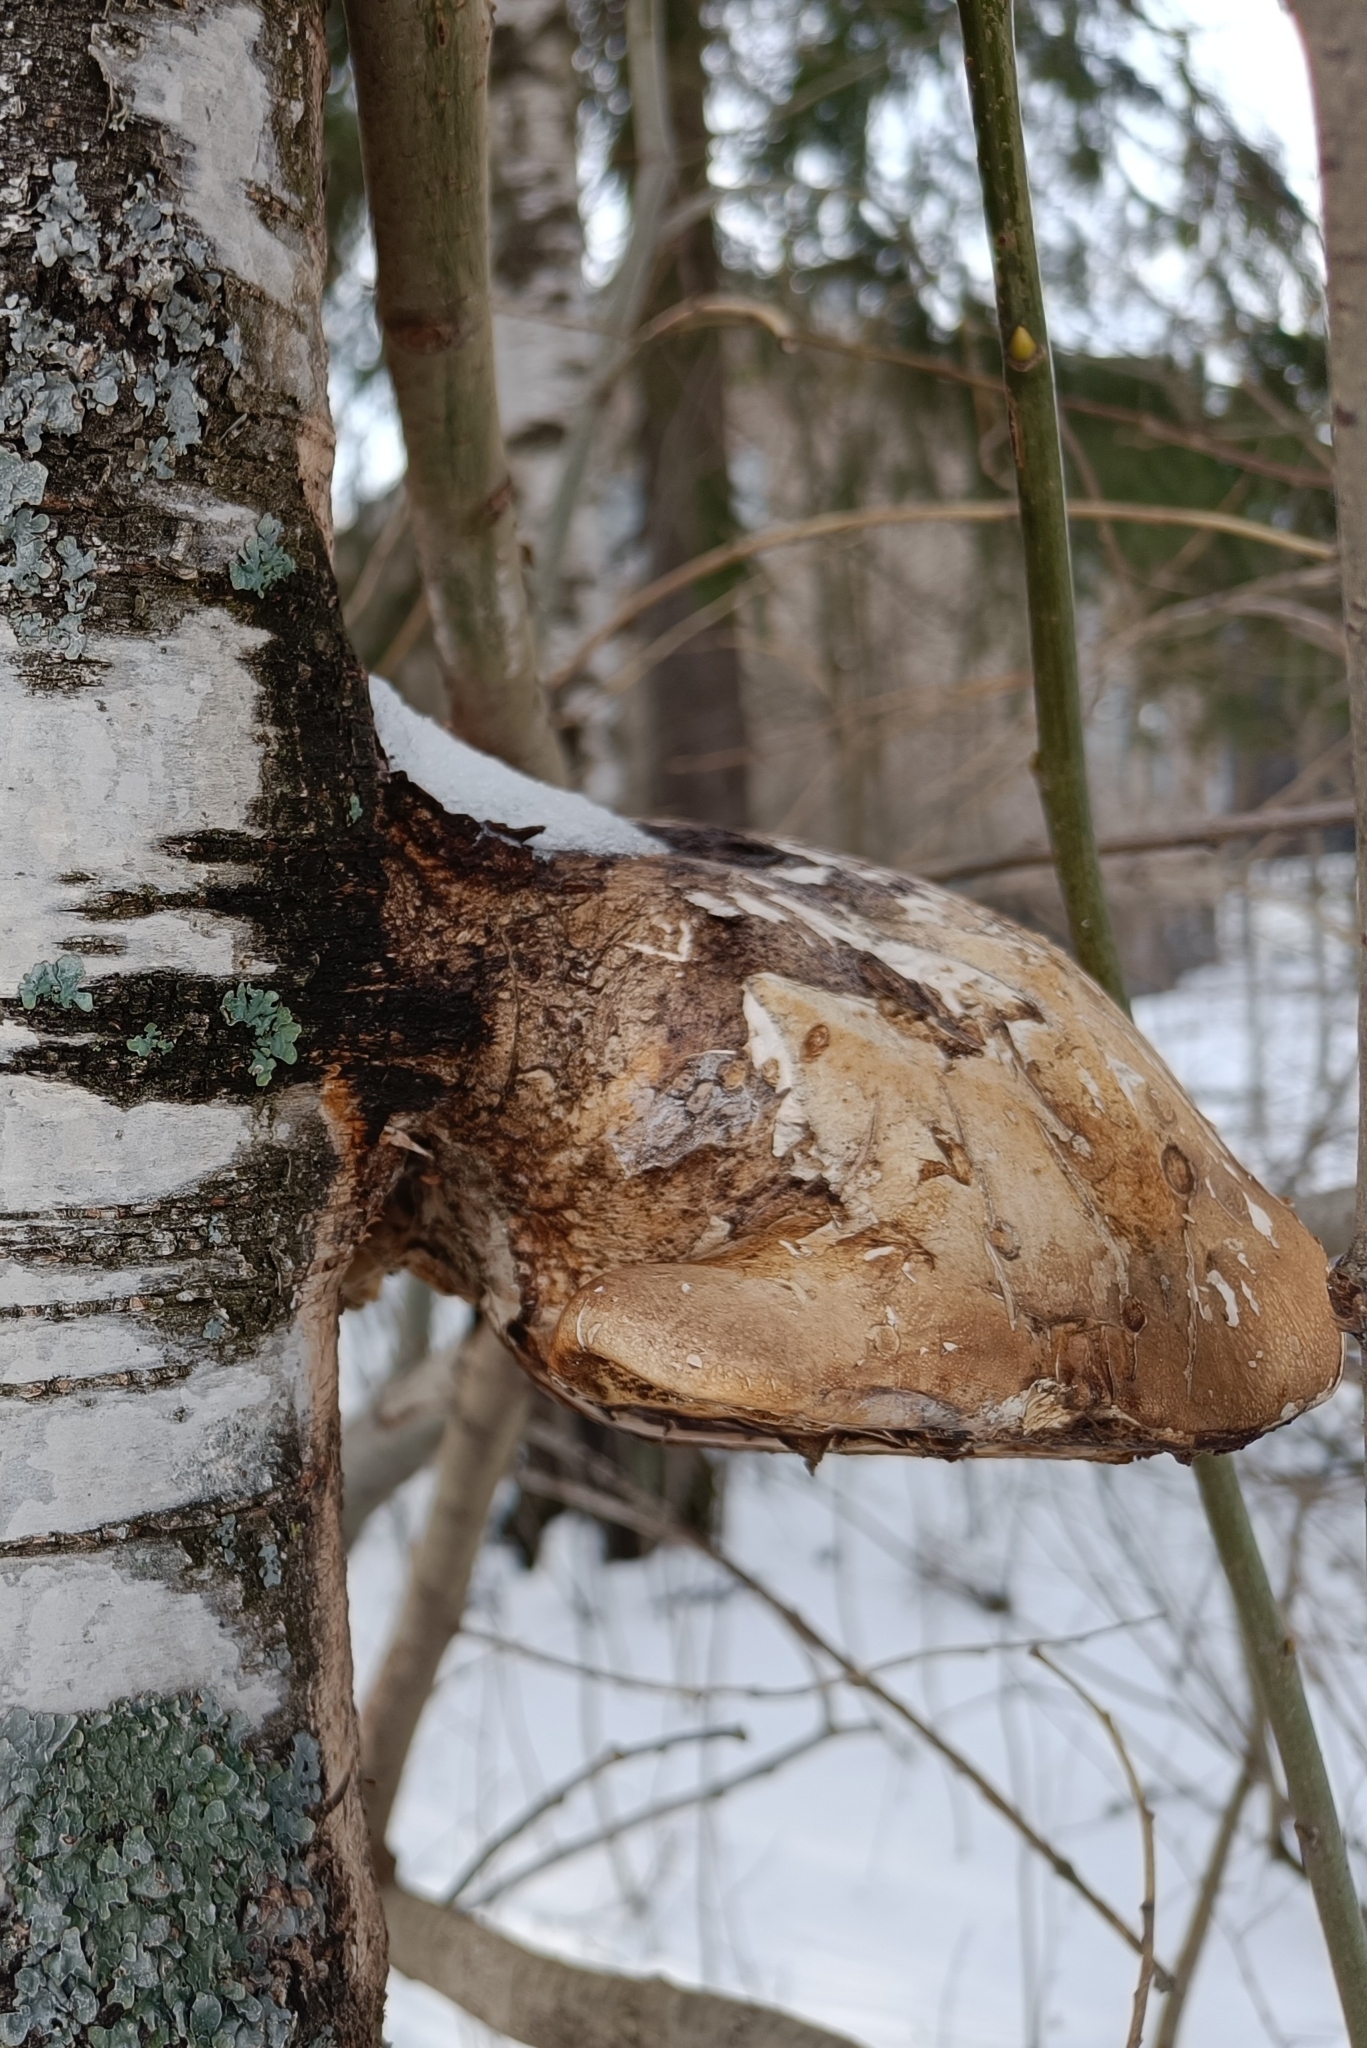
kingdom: Fungi
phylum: Basidiomycota
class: Agaricomycetes
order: Polyporales
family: Fomitopsidaceae
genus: Fomitopsis
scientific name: Fomitopsis betulina
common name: Birch polypore
